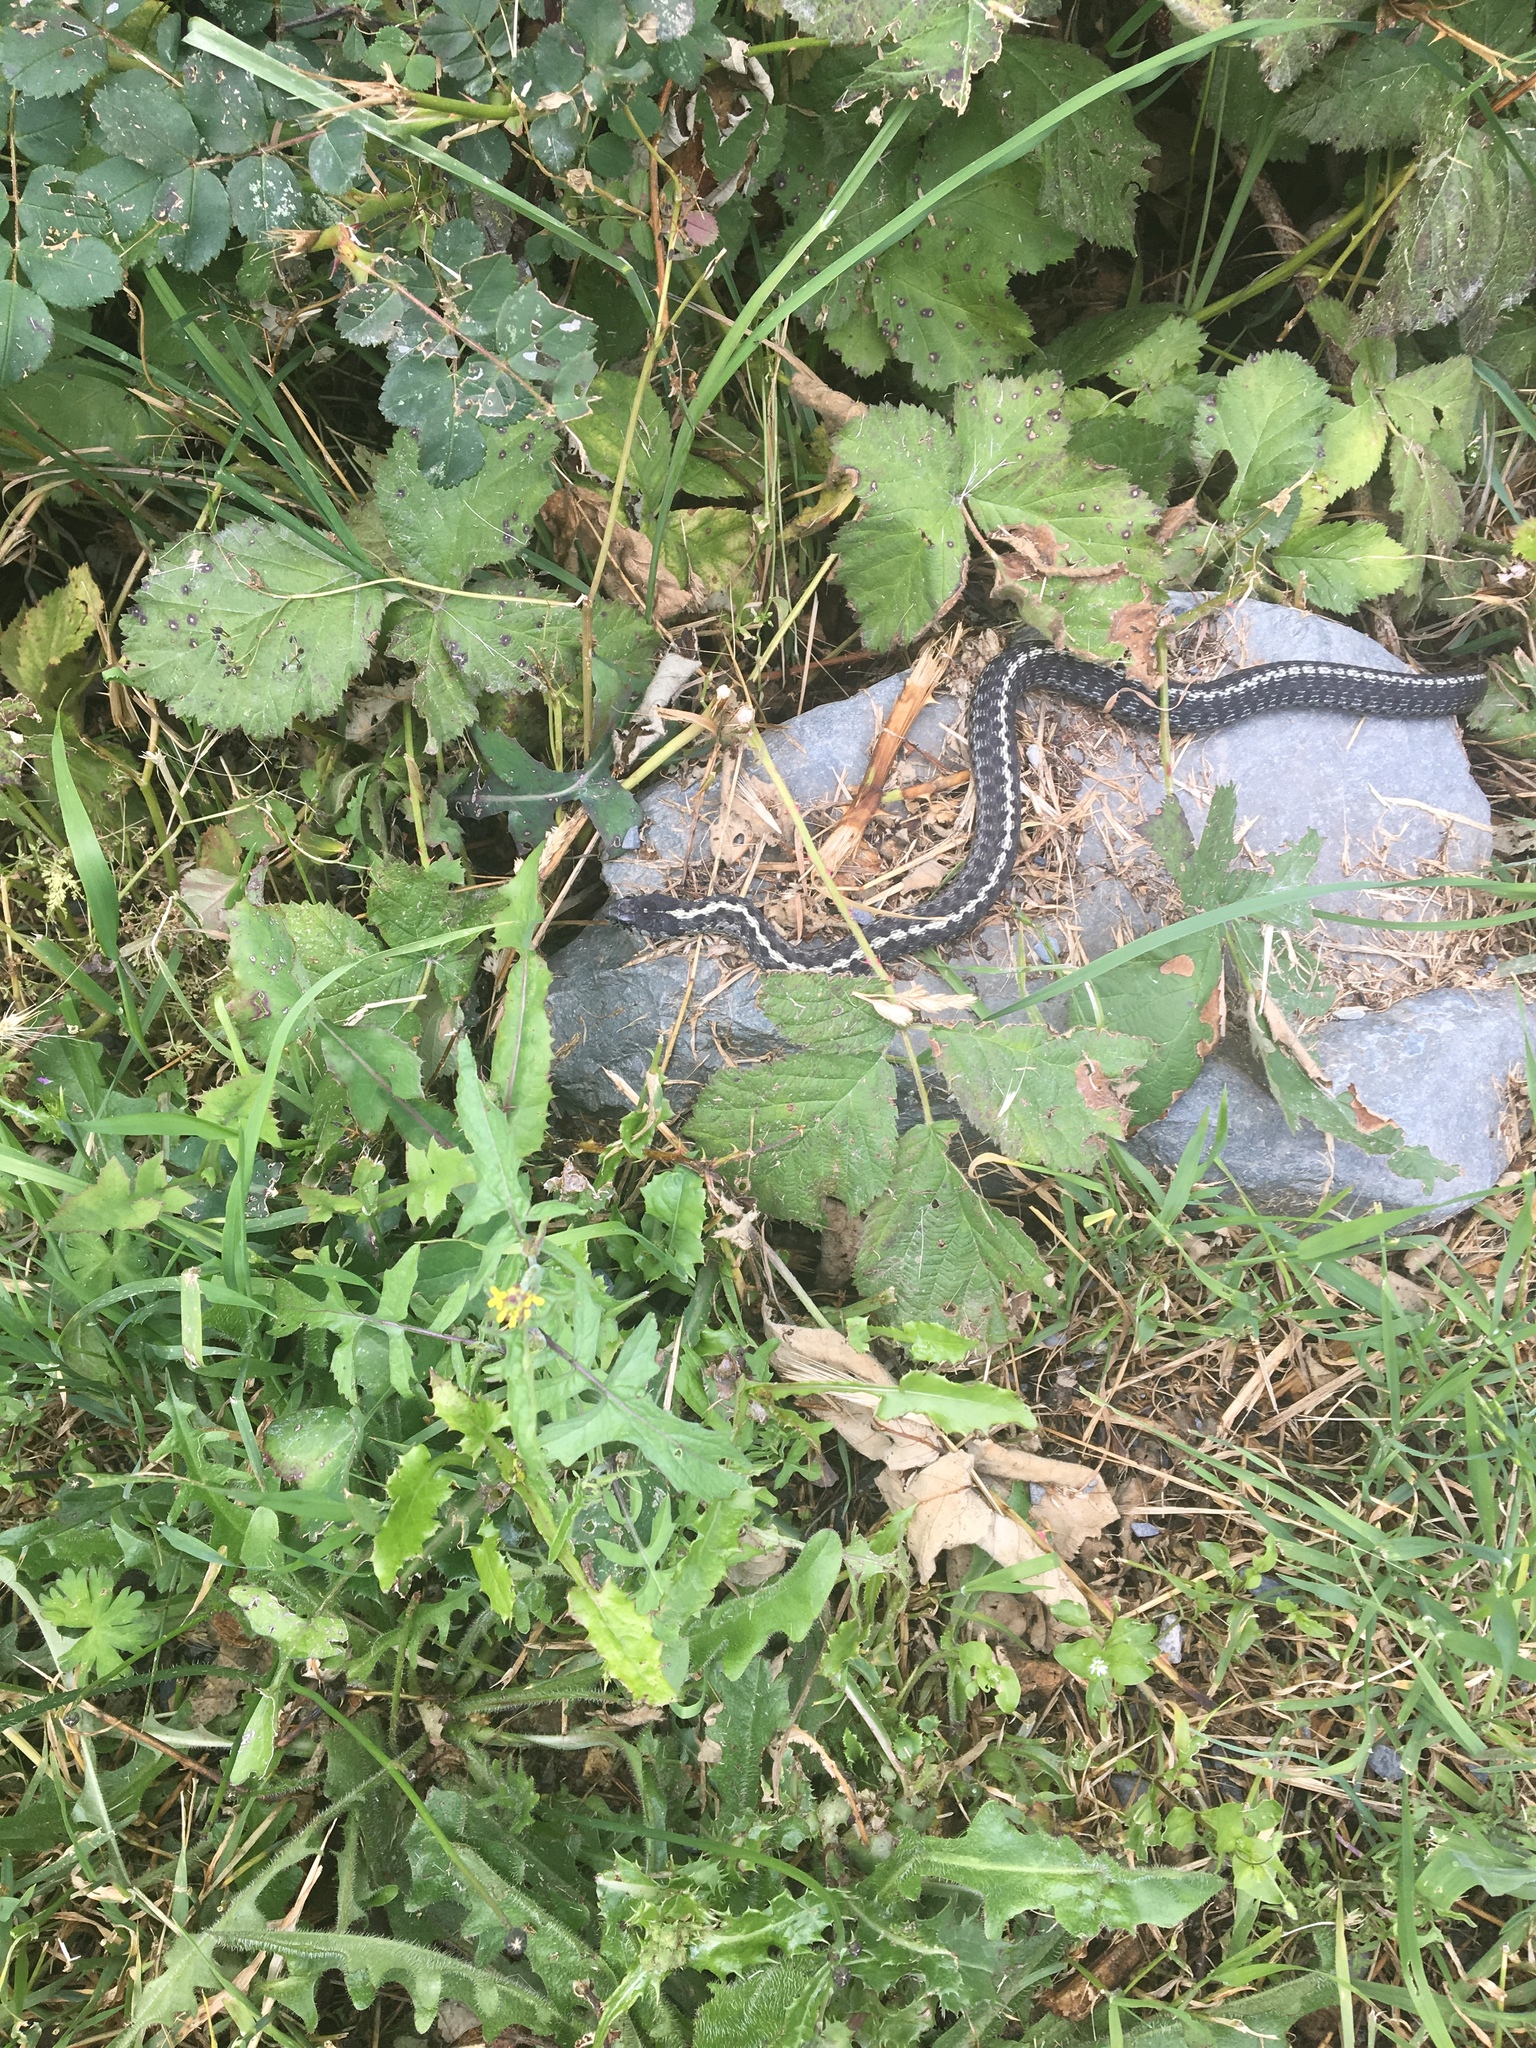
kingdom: Animalia
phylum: Chordata
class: Squamata
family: Colubridae
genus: Thamnophis
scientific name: Thamnophis elegans
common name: Western terrestrial garter snake
